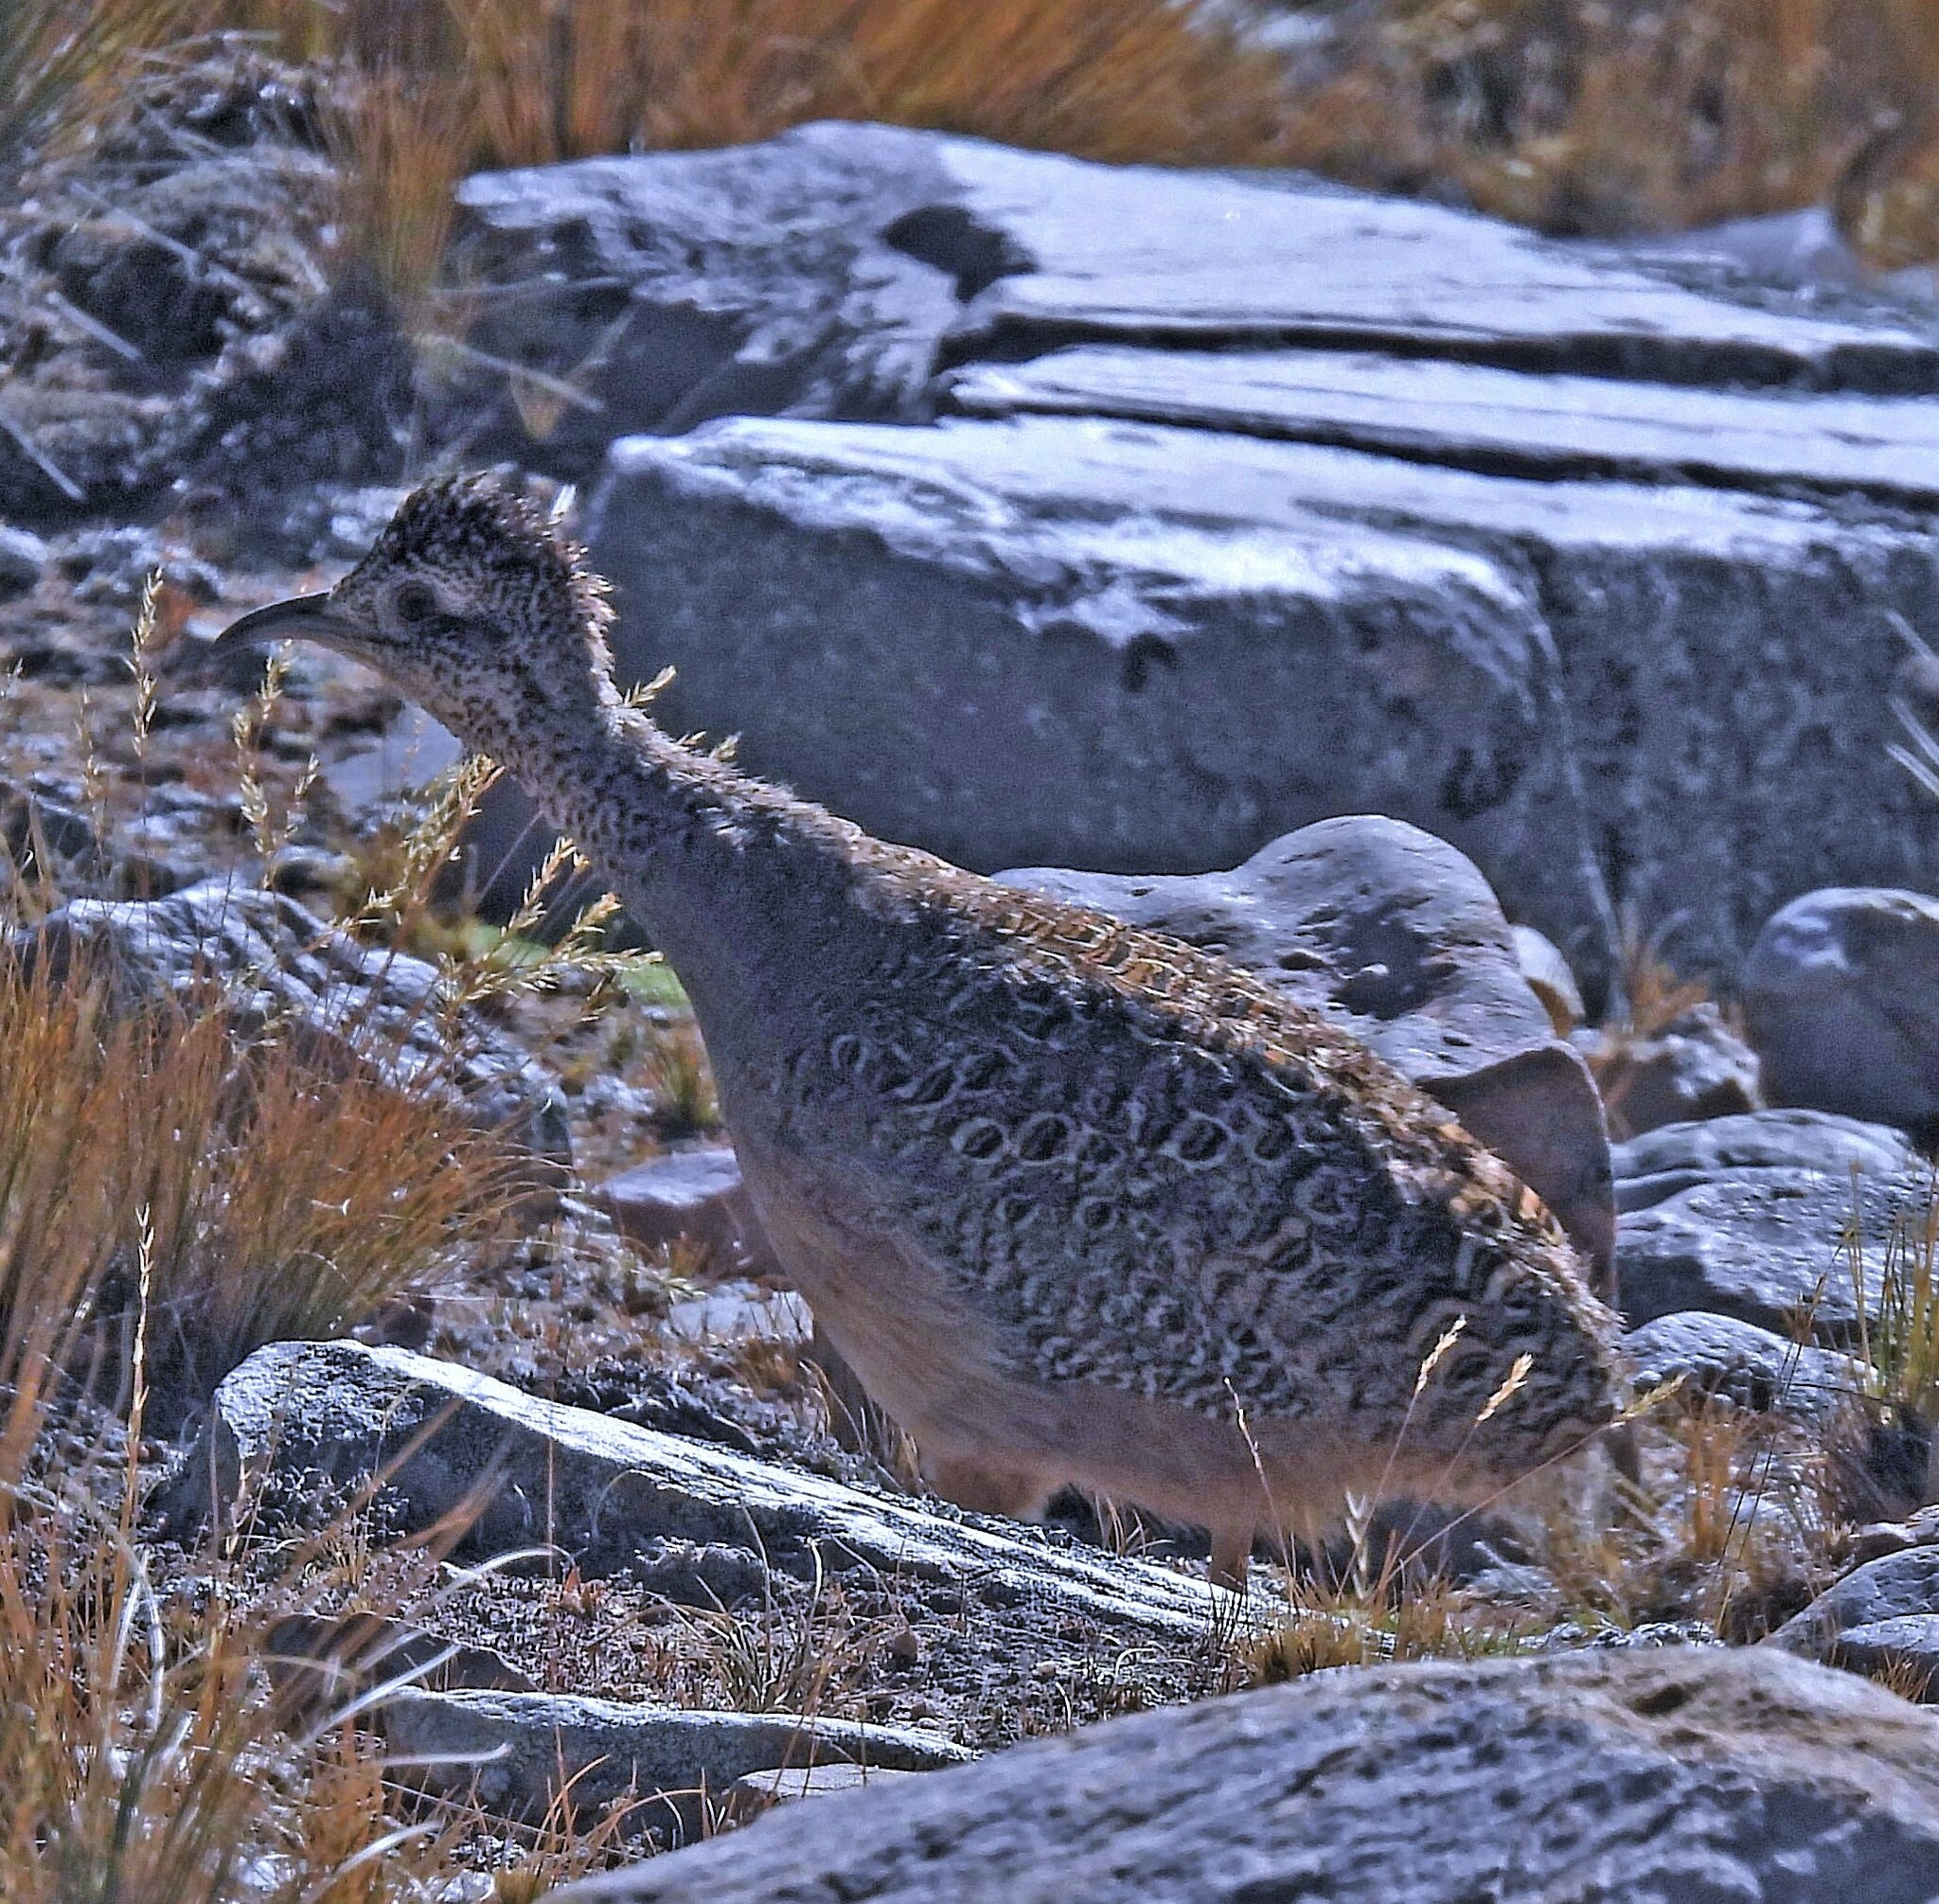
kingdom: Animalia
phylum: Chordata
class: Aves
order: Tinamiformes
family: Tinamidae
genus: Nothoprocta
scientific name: Nothoprocta ornata
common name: Ornate tinamou
